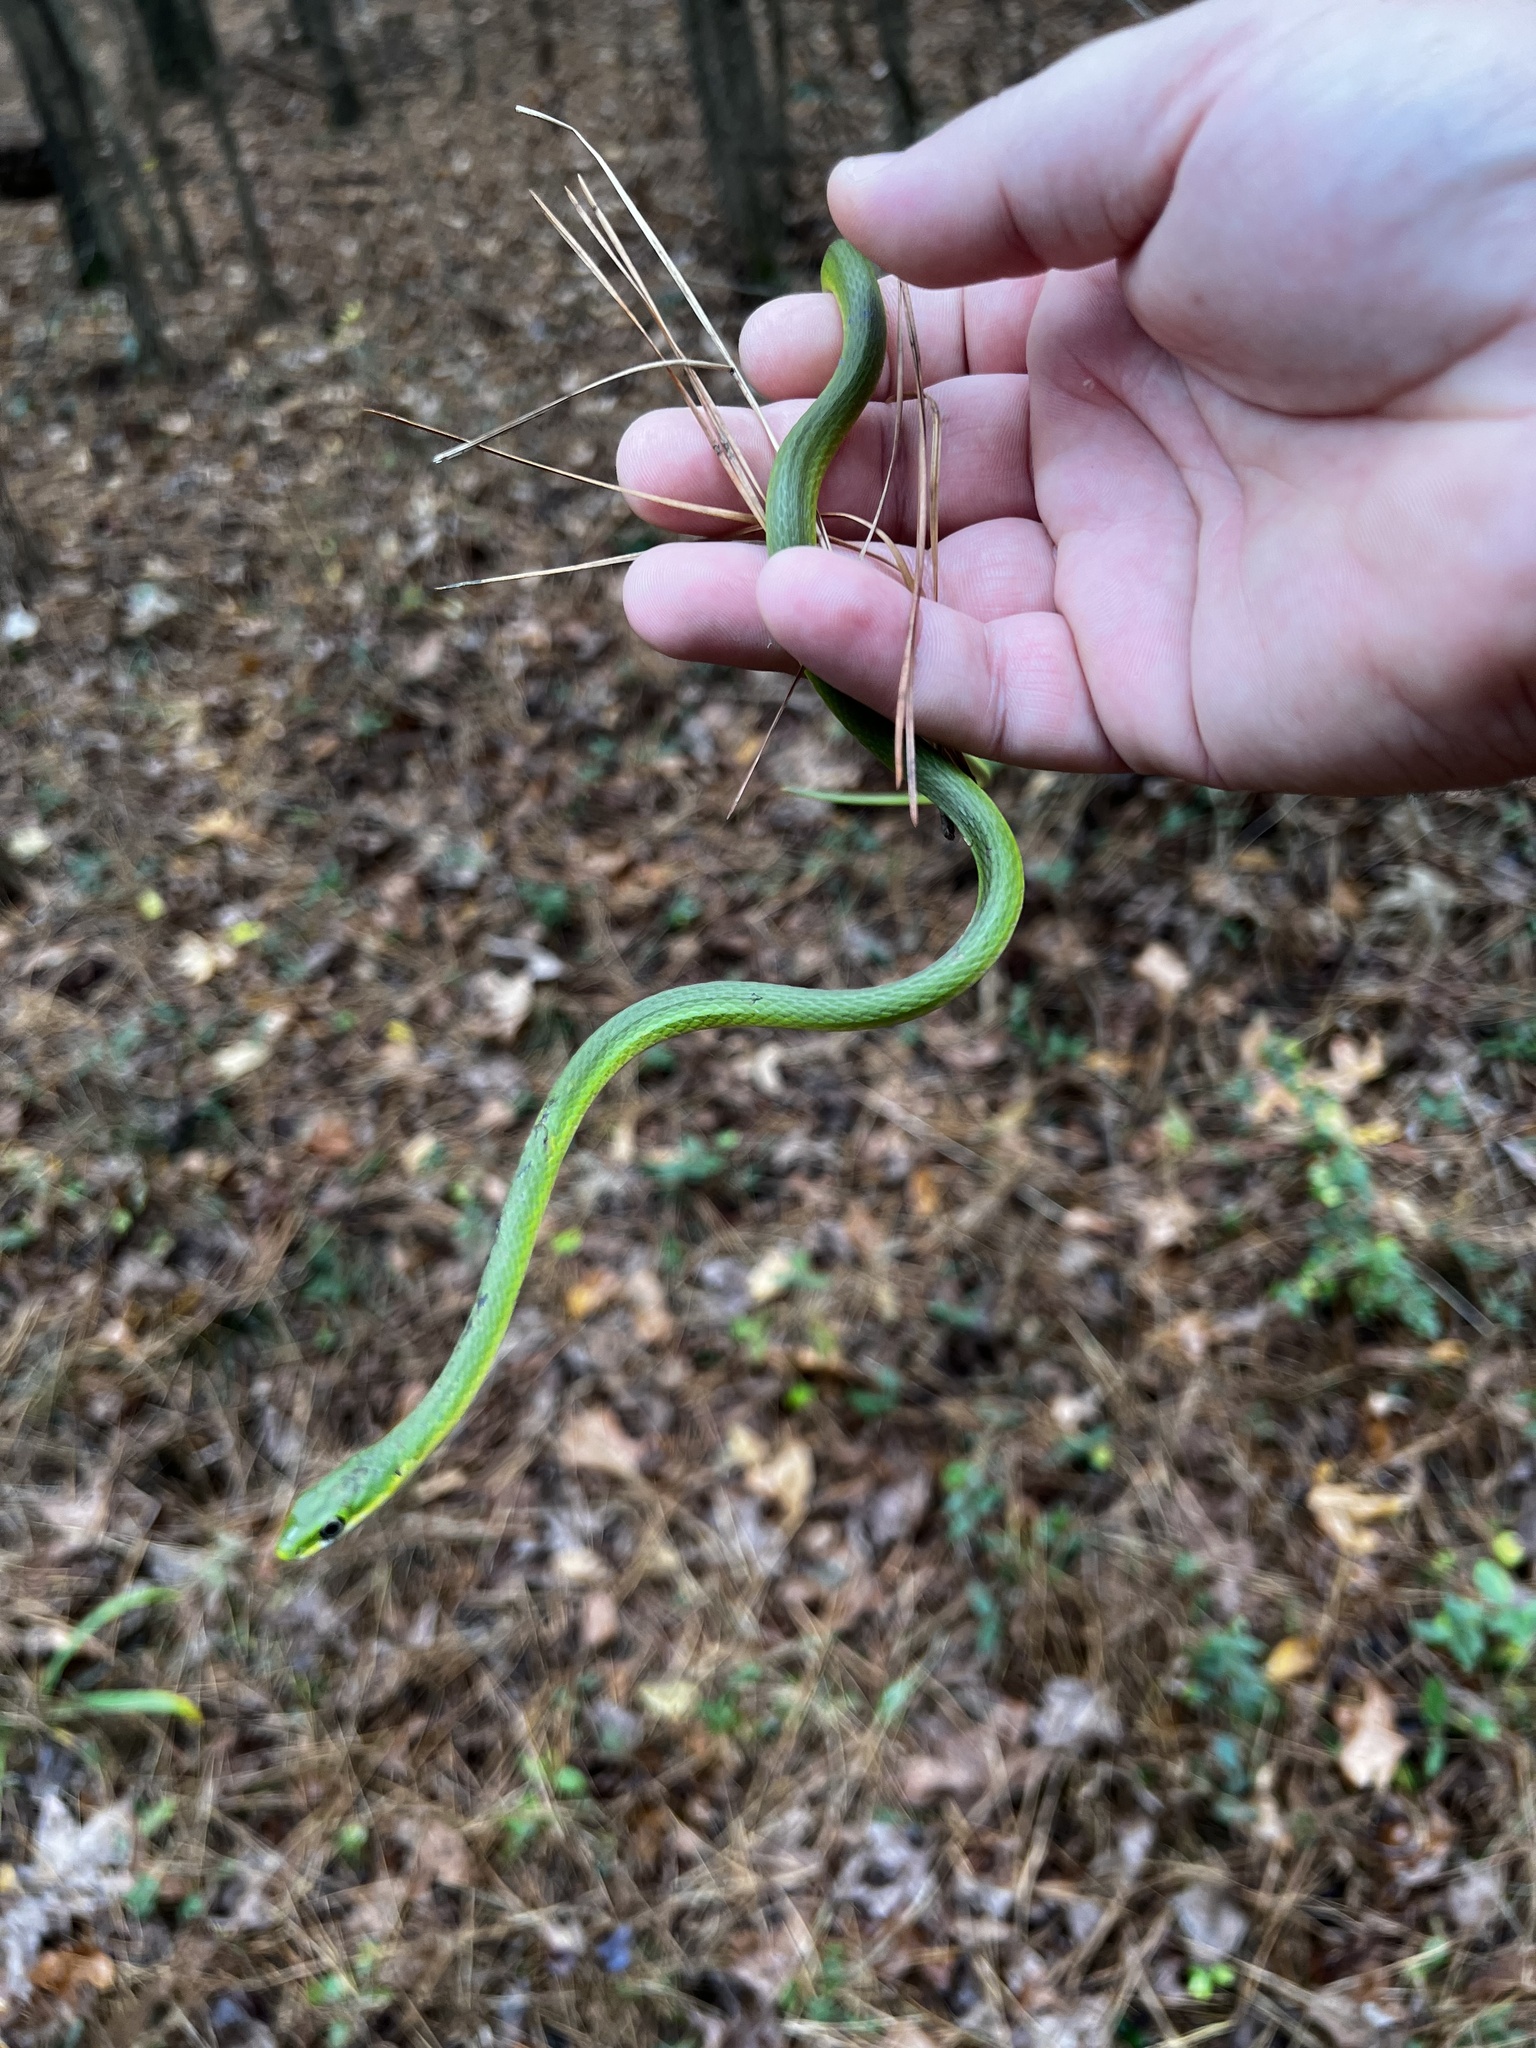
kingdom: Animalia
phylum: Chordata
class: Squamata
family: Colubridae
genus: Opheodrys
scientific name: Opheodrys aestivus
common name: Rough greensnake
